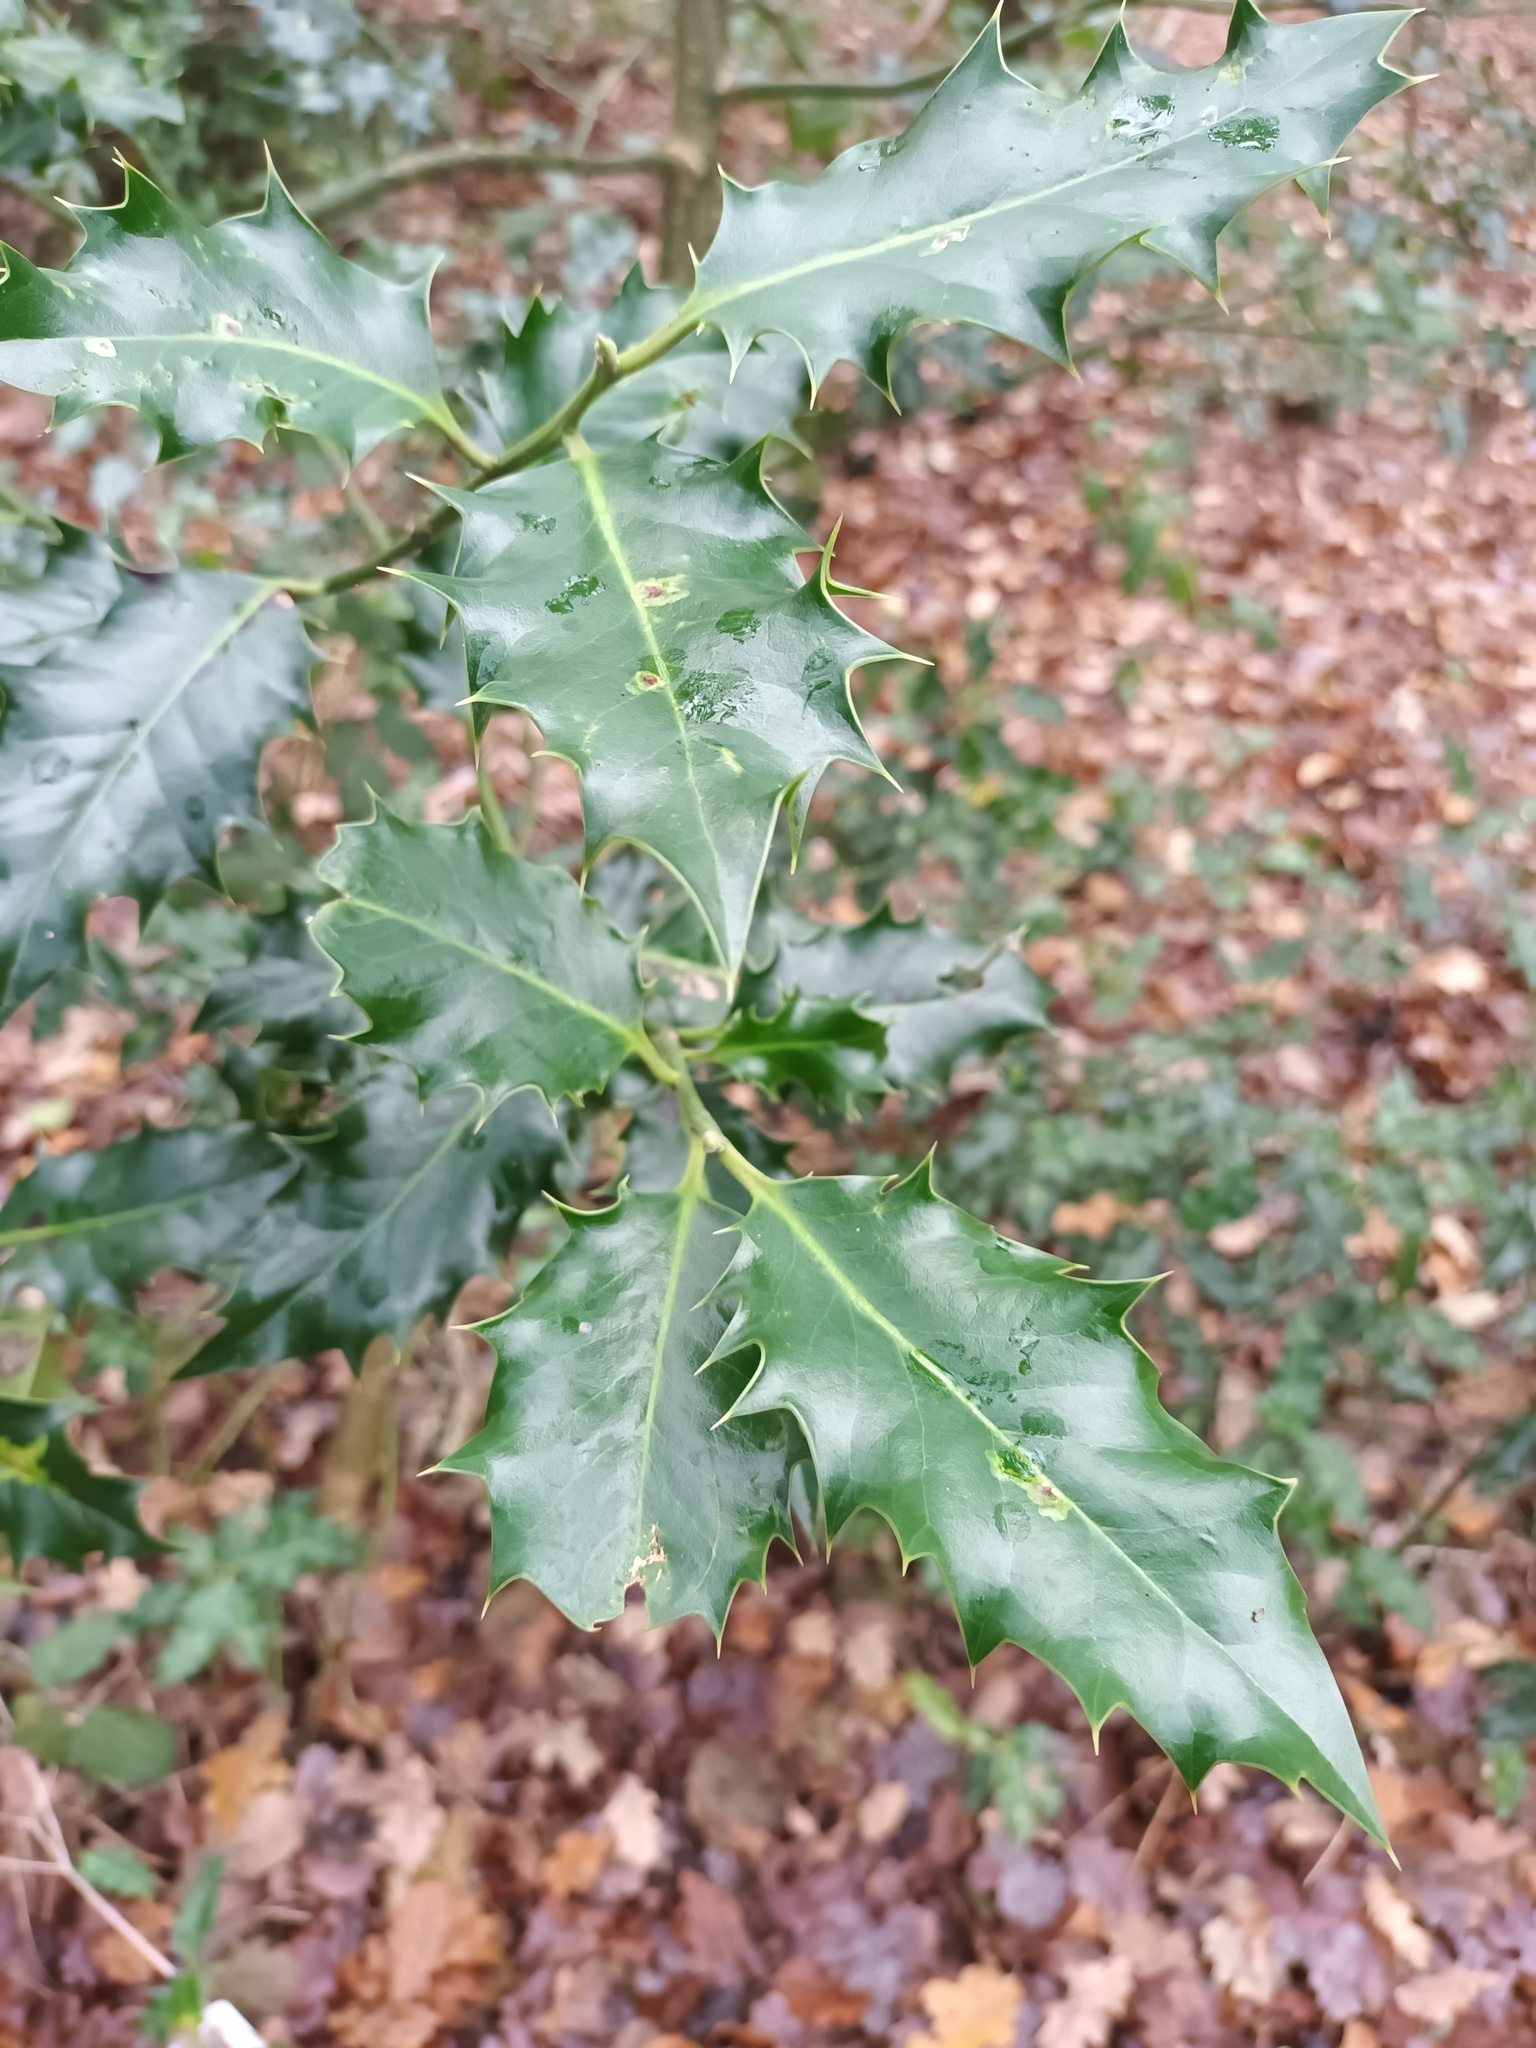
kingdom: Plantae
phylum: Tracheophyta
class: Magnoliopsida
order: Aquifoliales
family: Aquifoliaceae
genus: Ilex
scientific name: Ilex aquifolium
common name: English holly
